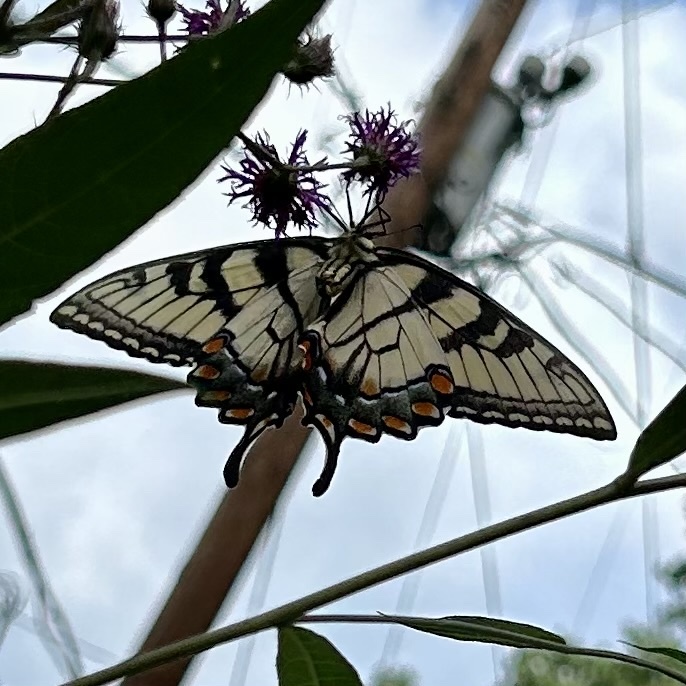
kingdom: Animalia
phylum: Arthropoda
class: Insecta
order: Lepidoptera
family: Papilionidae
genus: Papilio
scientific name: Papilio glaucus
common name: Tiger swallowtail
